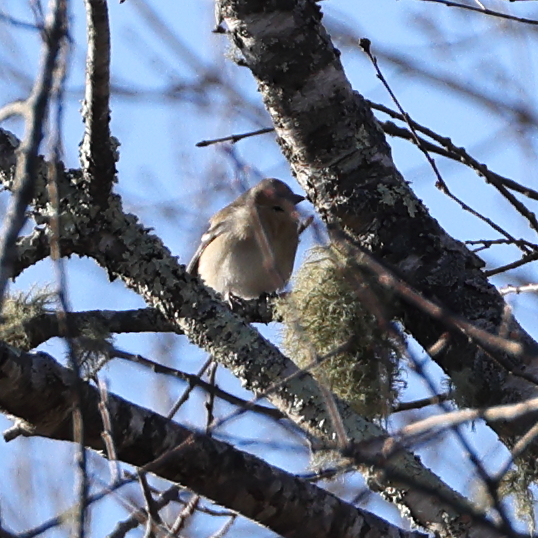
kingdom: Animalia
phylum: Chordata
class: Aves
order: Passeriformes
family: Fringillidae
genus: Spinus
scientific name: Spinus tristis
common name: American goldfinch
